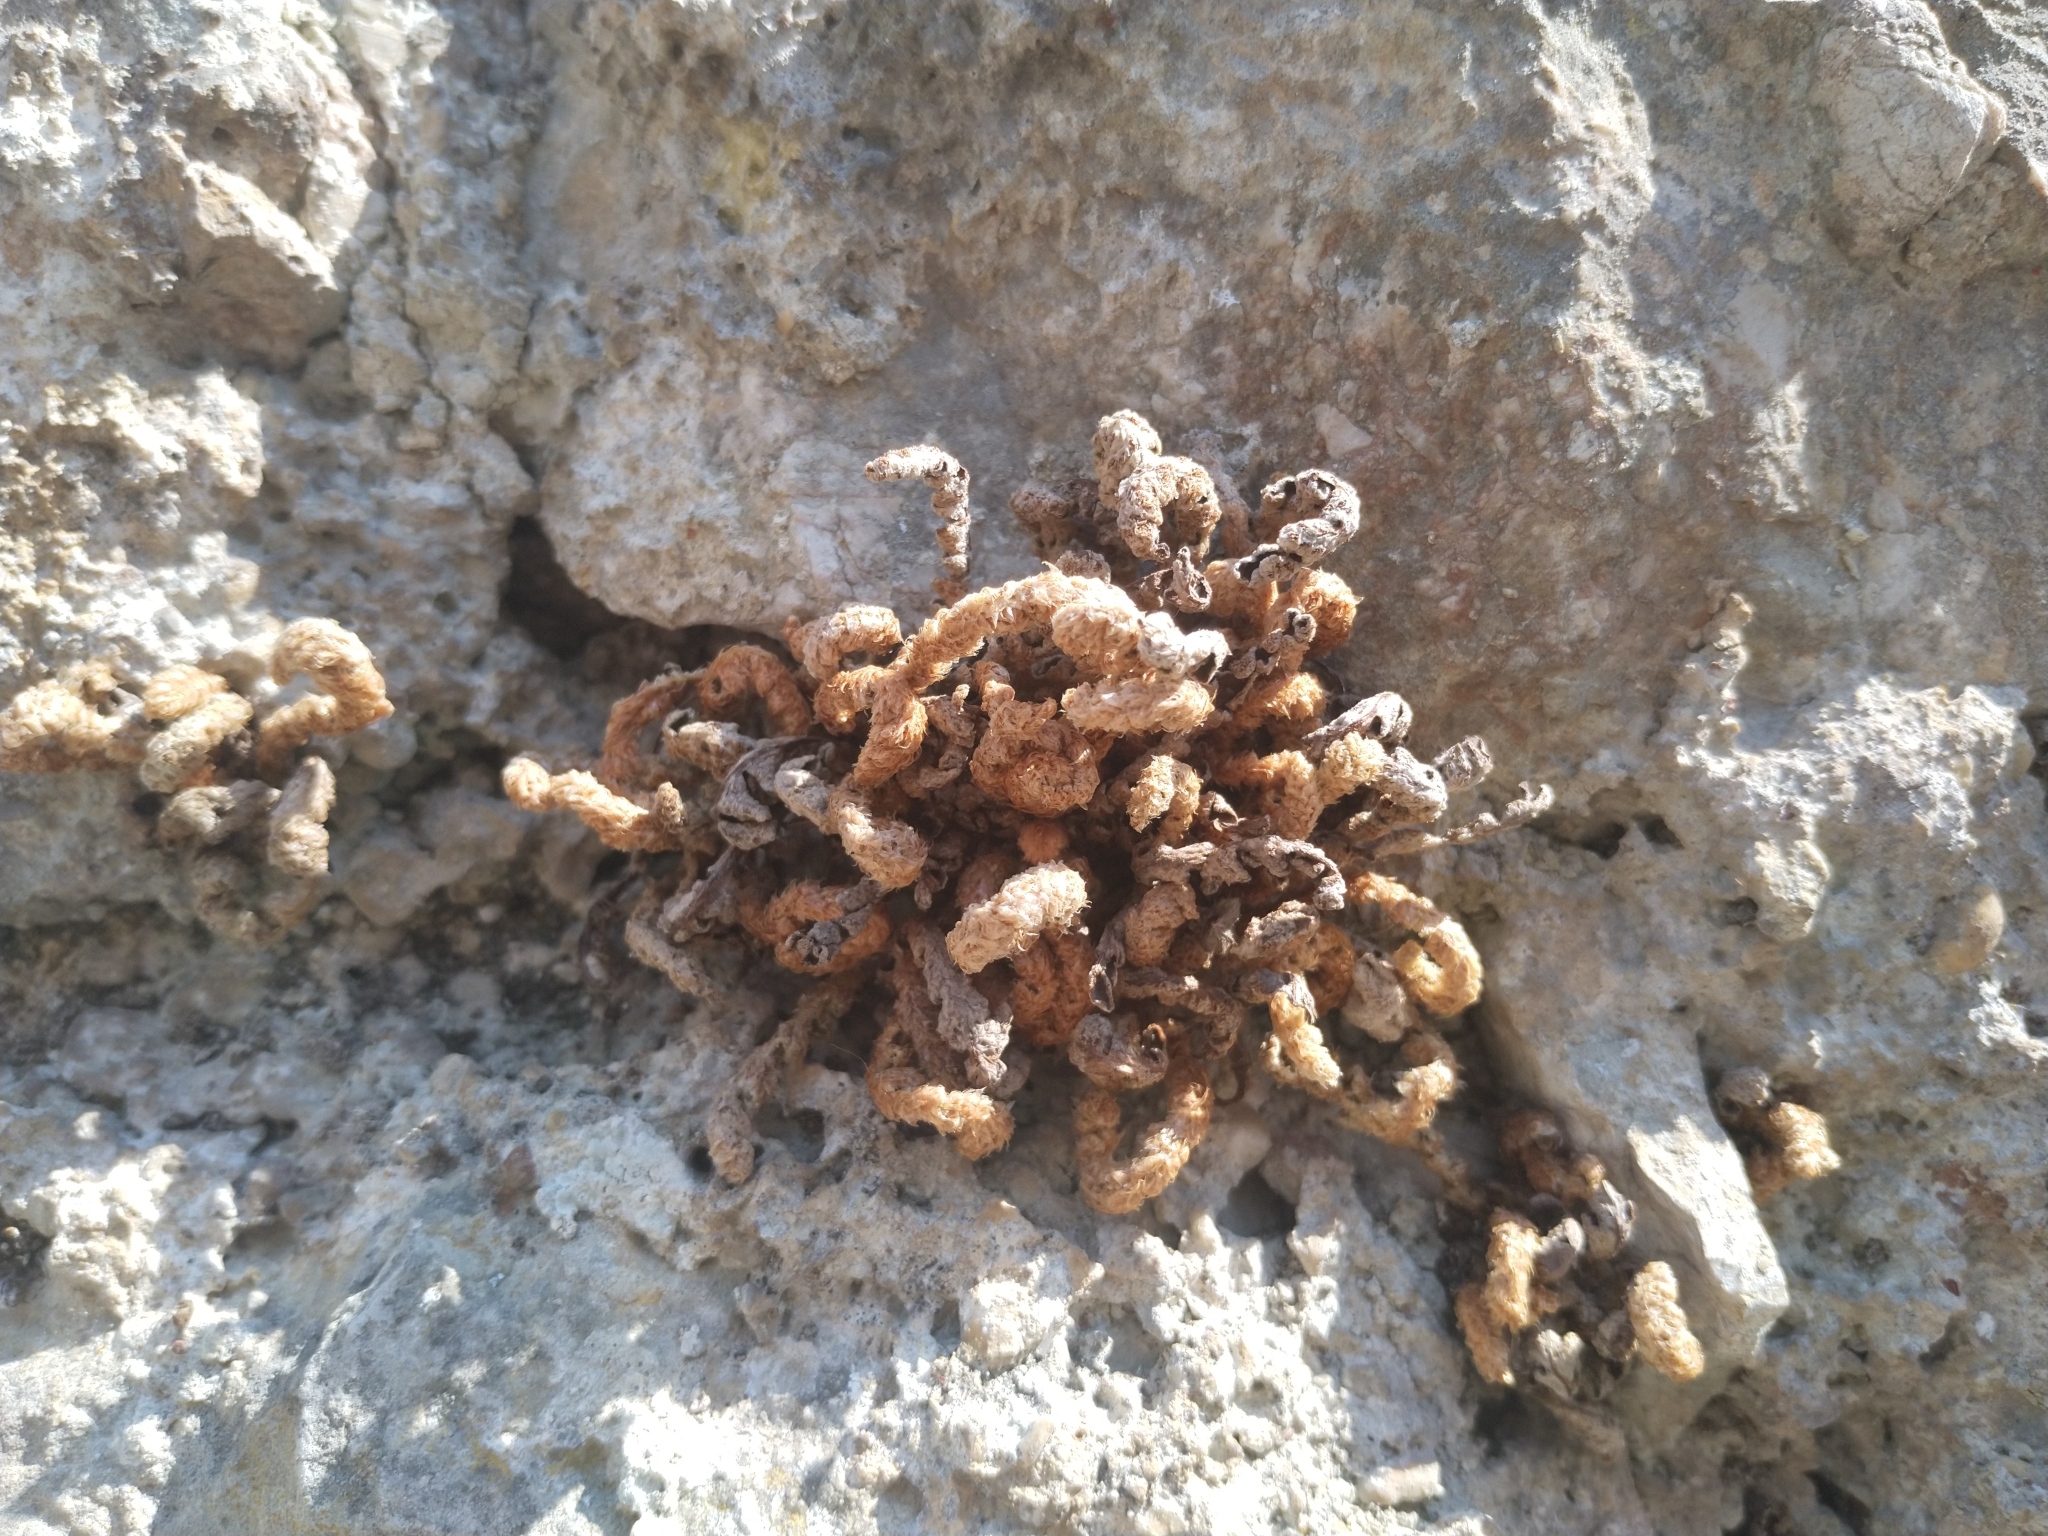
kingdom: Plantae
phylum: Tracheophyta
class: Polypodiopsida
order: Polypodiales
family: Aspleniaceae
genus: Asplenium
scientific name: Asplenium ceterach
